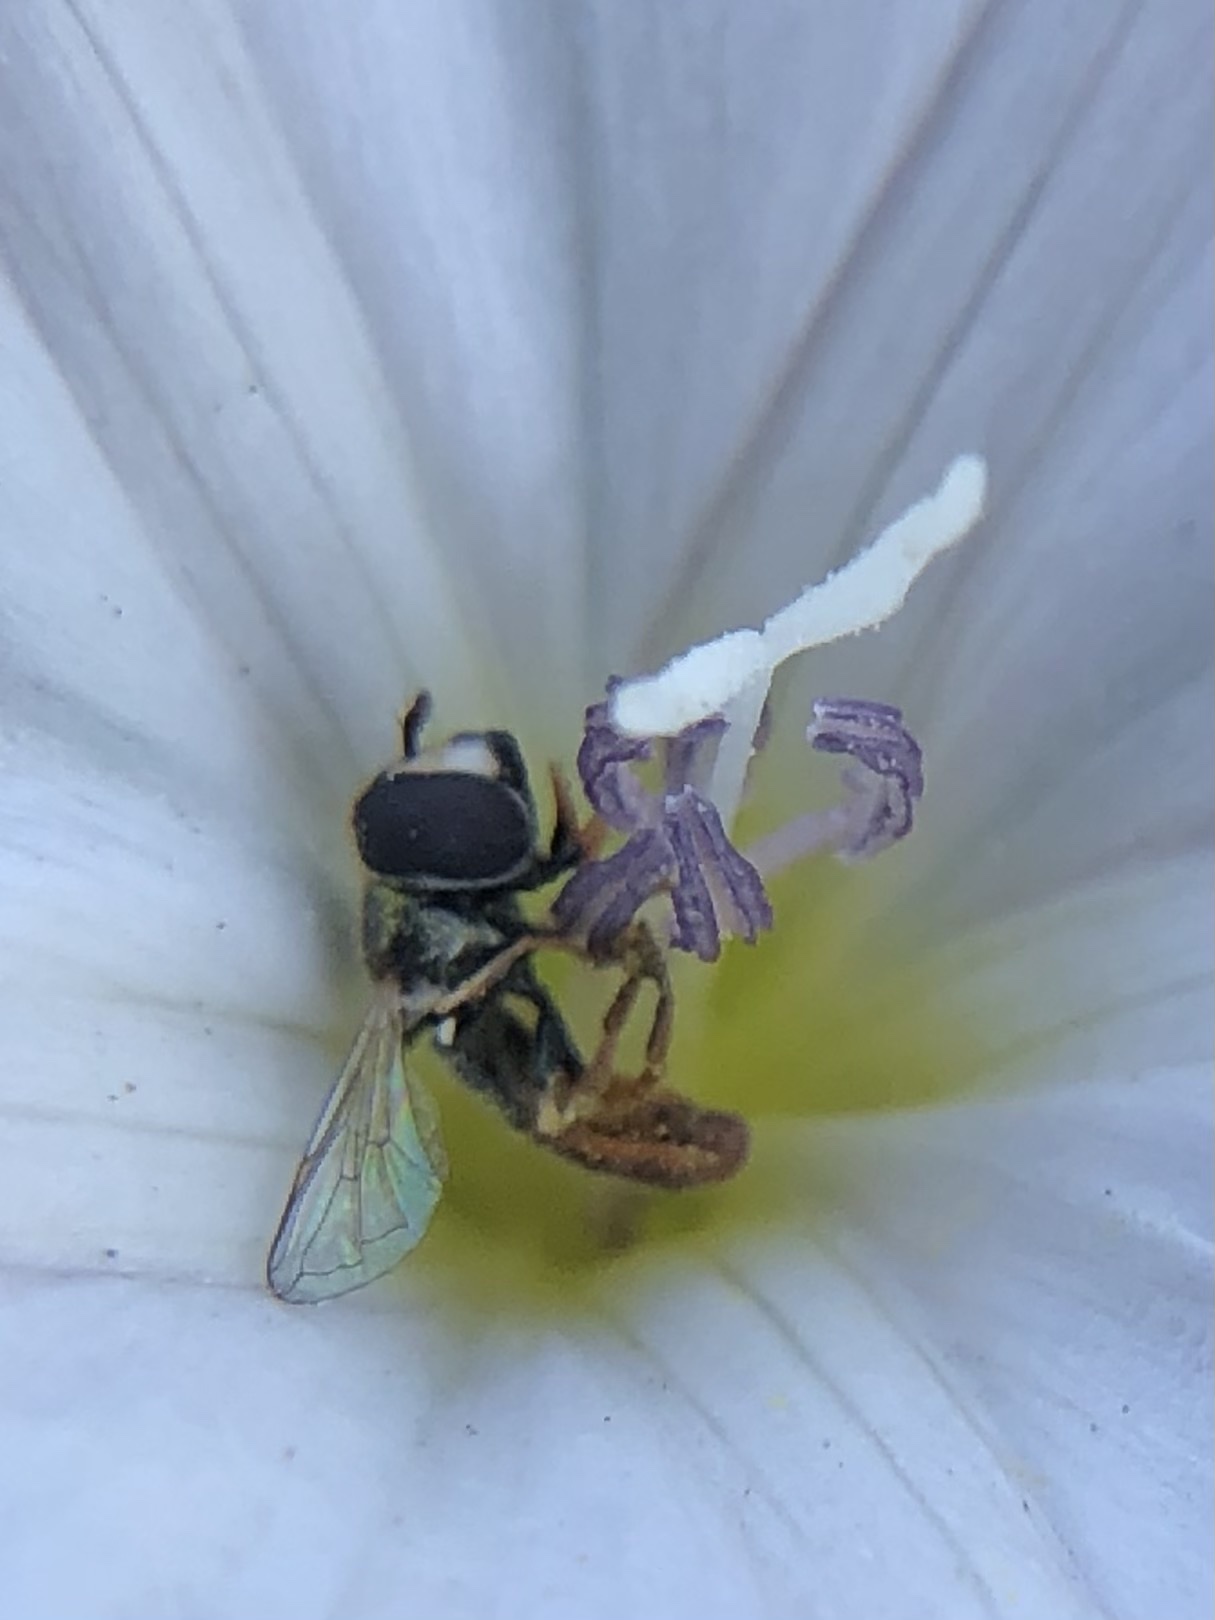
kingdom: Animalia
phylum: Arthropoda
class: Insecta
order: Diptera
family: Syrphidae
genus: Paragus
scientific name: Paragus haemorrhous
